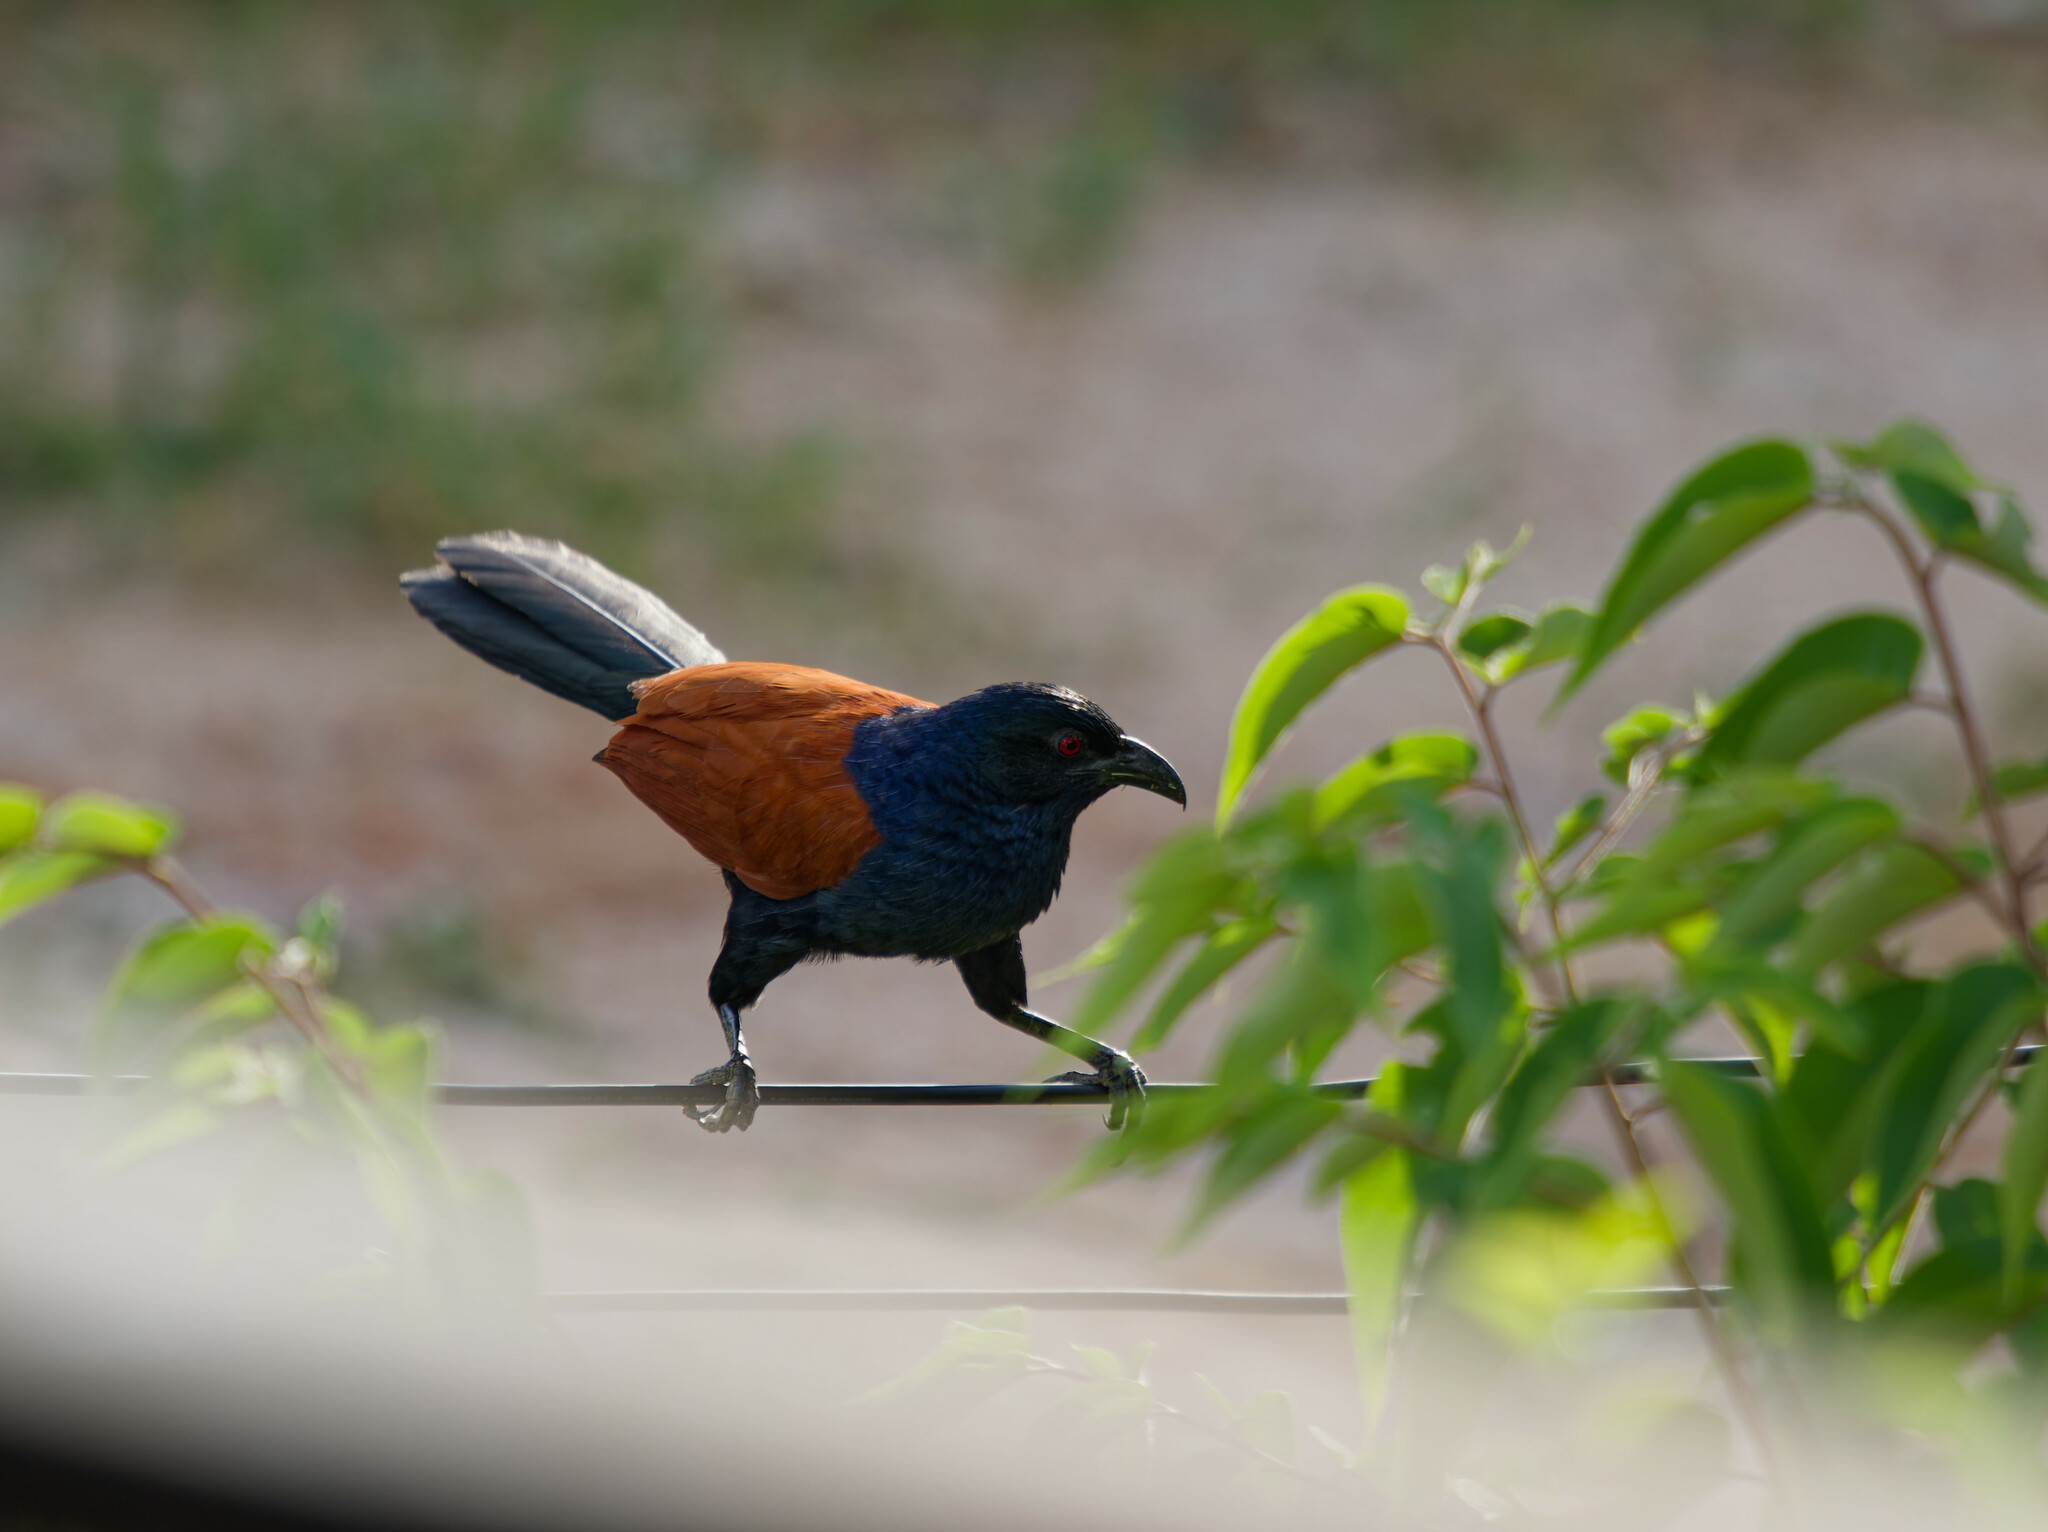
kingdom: Animalia
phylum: Chordata
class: Aves
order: Cuculiformes
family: Cuculidae
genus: Centropus
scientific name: Centropus sinensis
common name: Greater coucal
